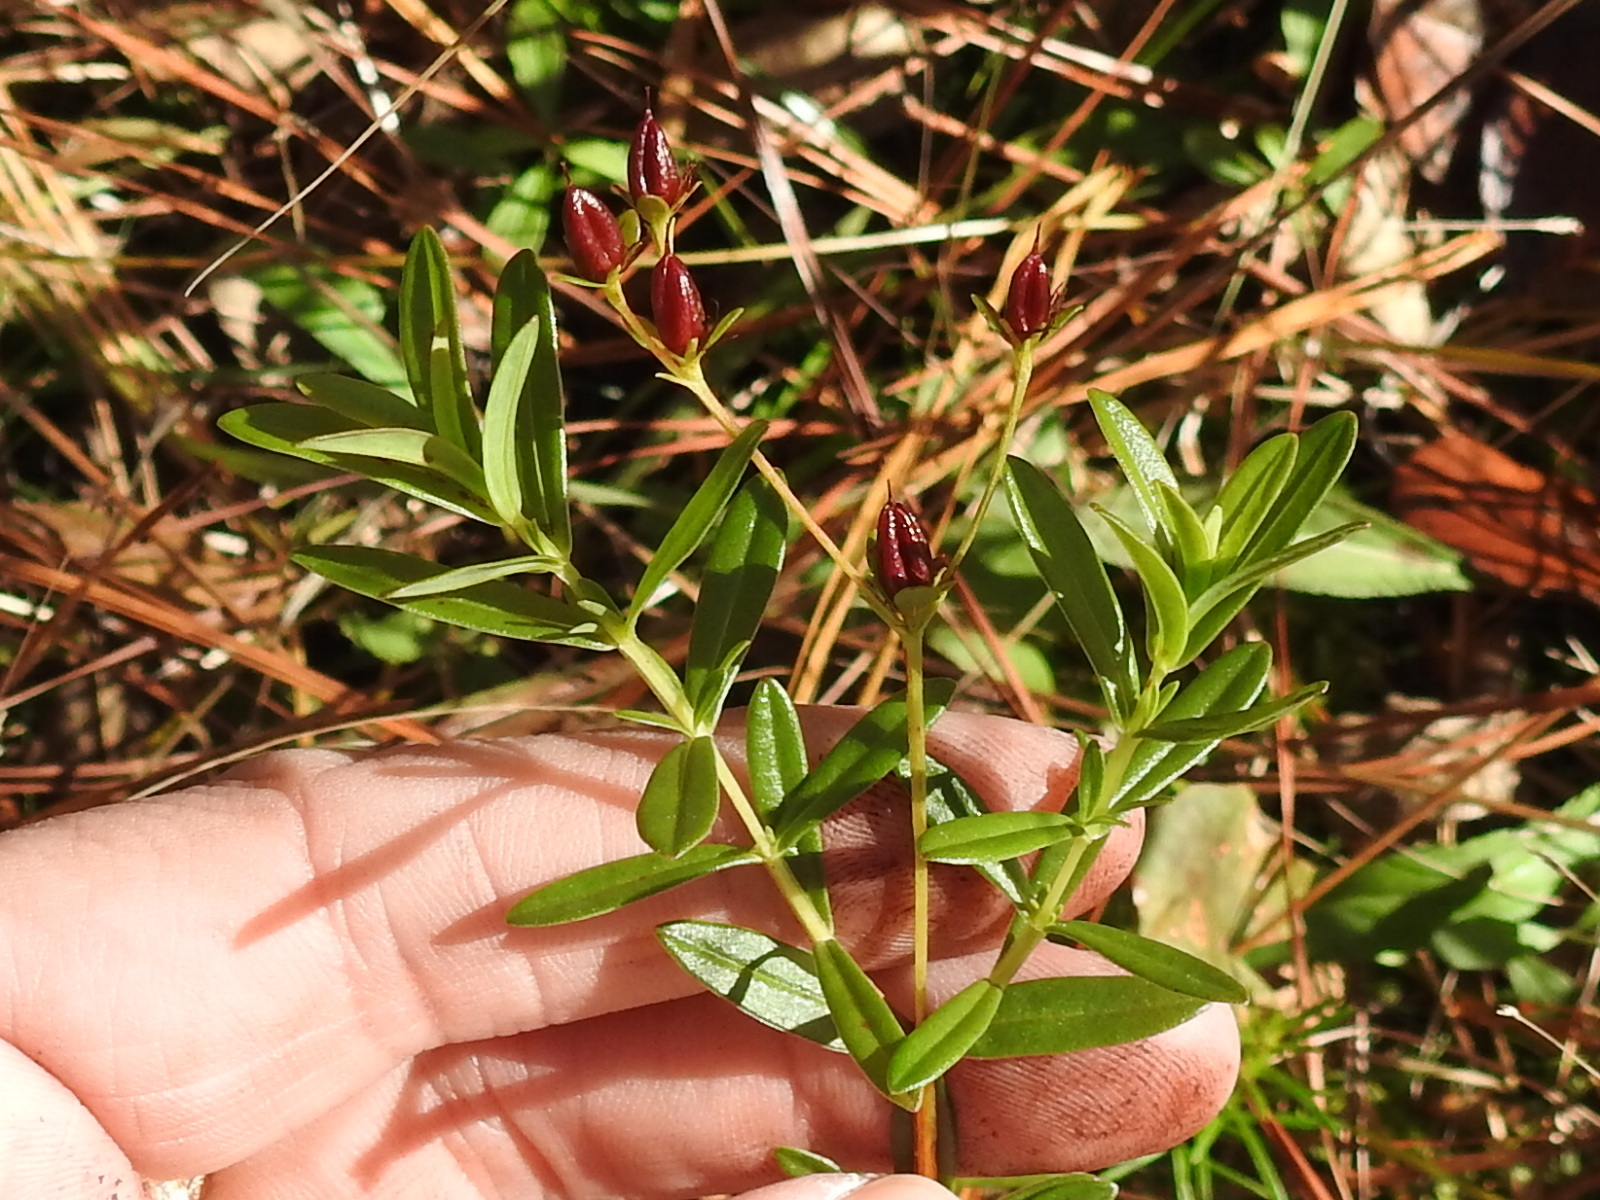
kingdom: Plantae
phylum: Tracheophyta
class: Magnoliopsida
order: Malpighiales
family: Hypericaceae
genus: Hypericum
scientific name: Hypericum cistifolium
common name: Round-pod st. john's-wort
